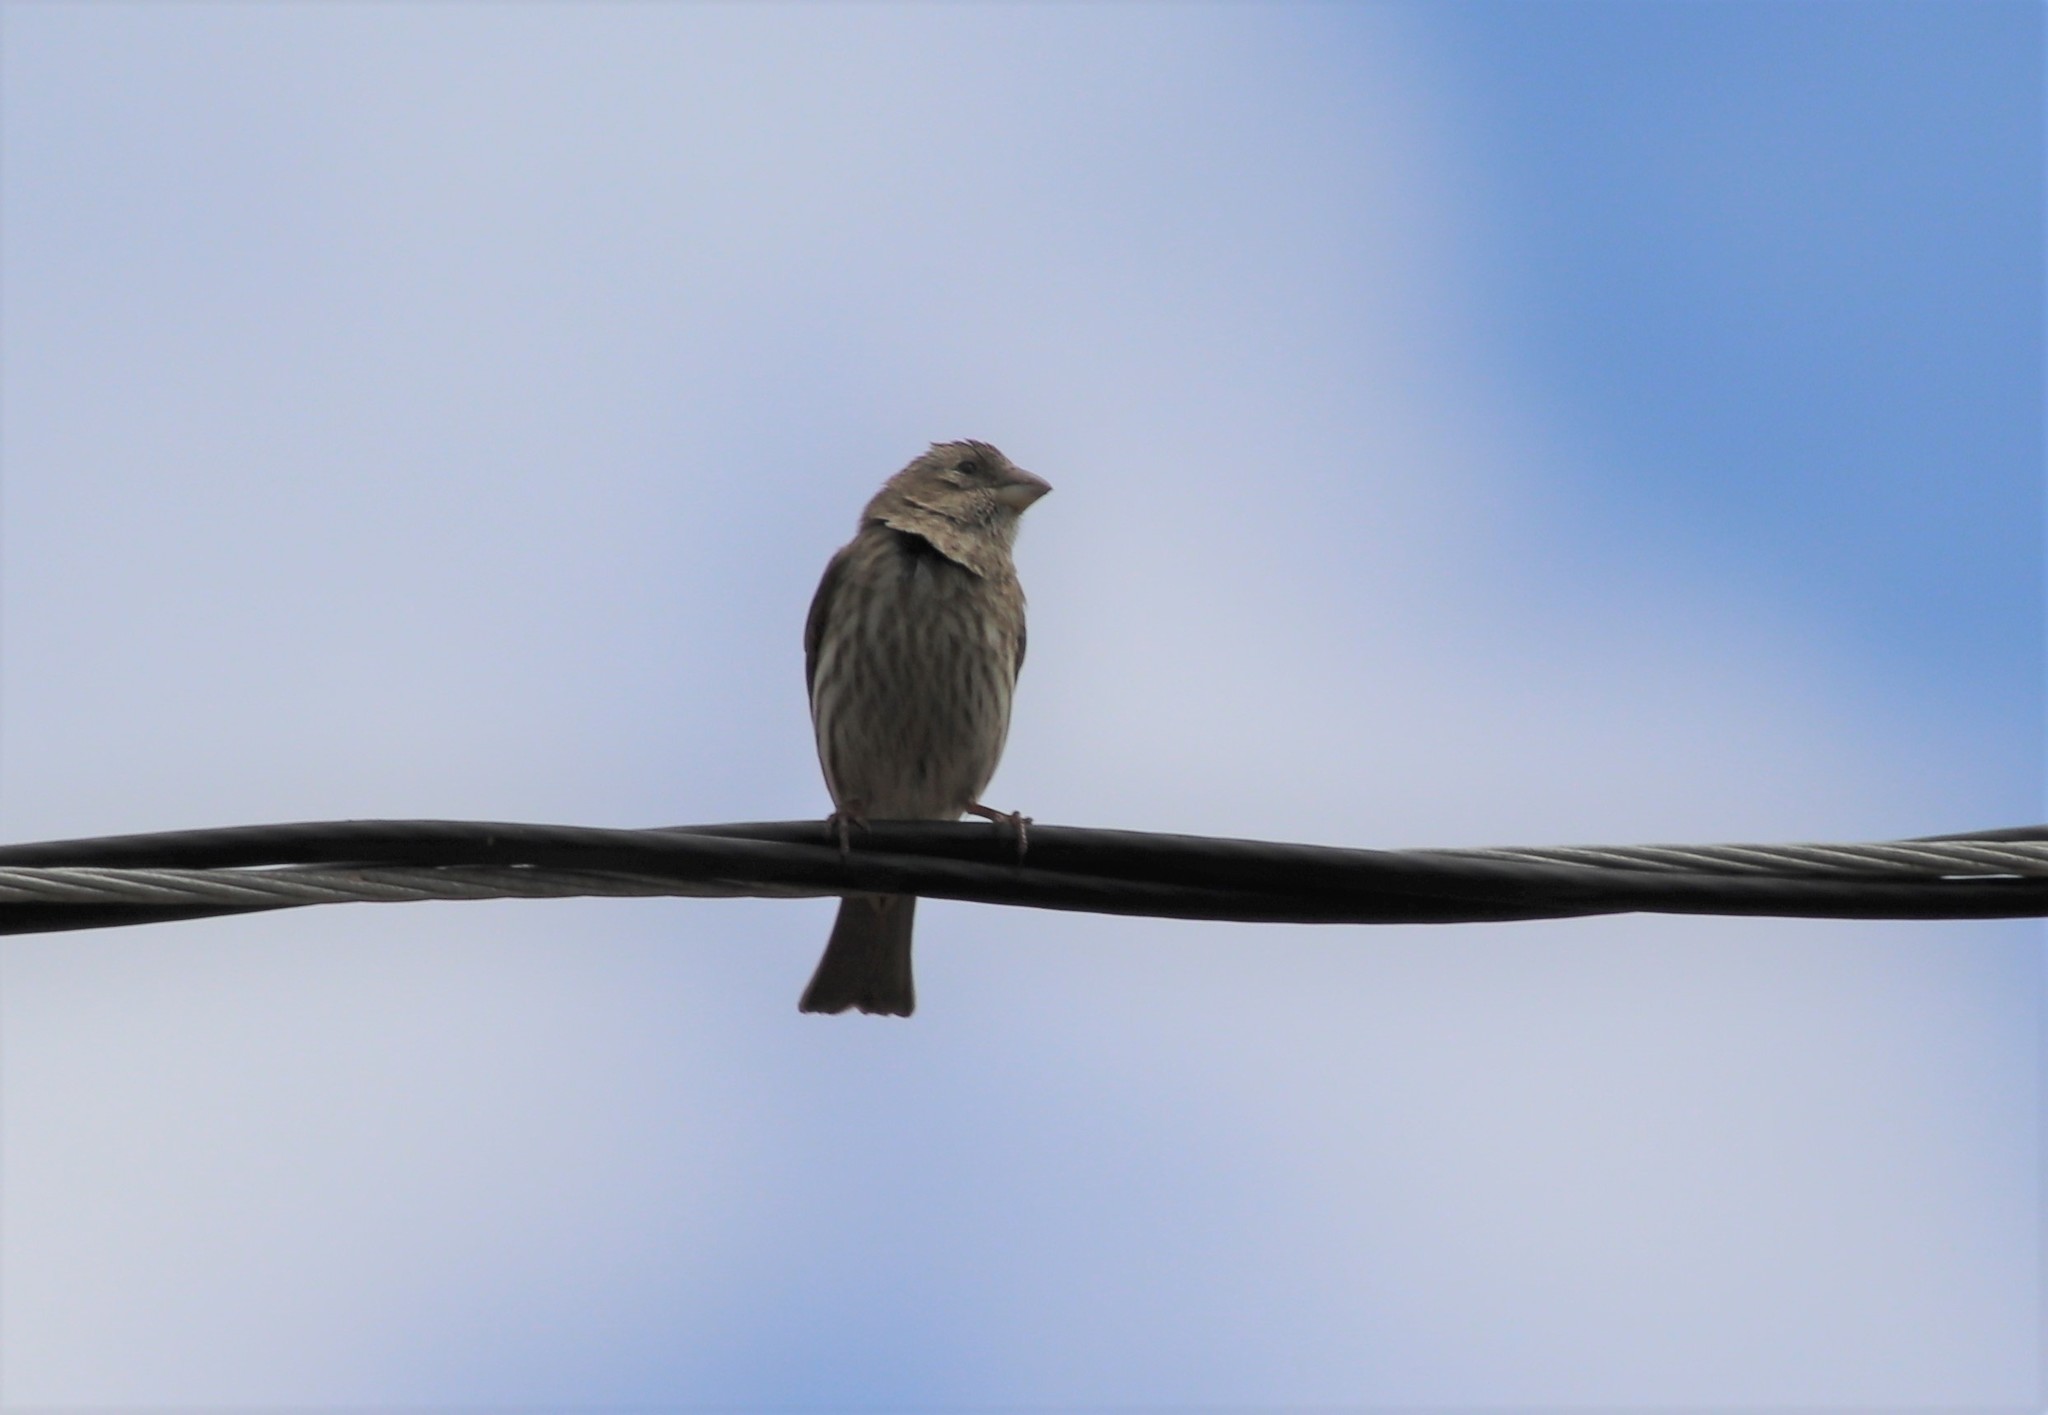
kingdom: Animalia
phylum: Chordata
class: Aves
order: Passeriformes
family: Fringillidae
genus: Haemorhous
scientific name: Haemorhous mexicanus
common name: House finch
